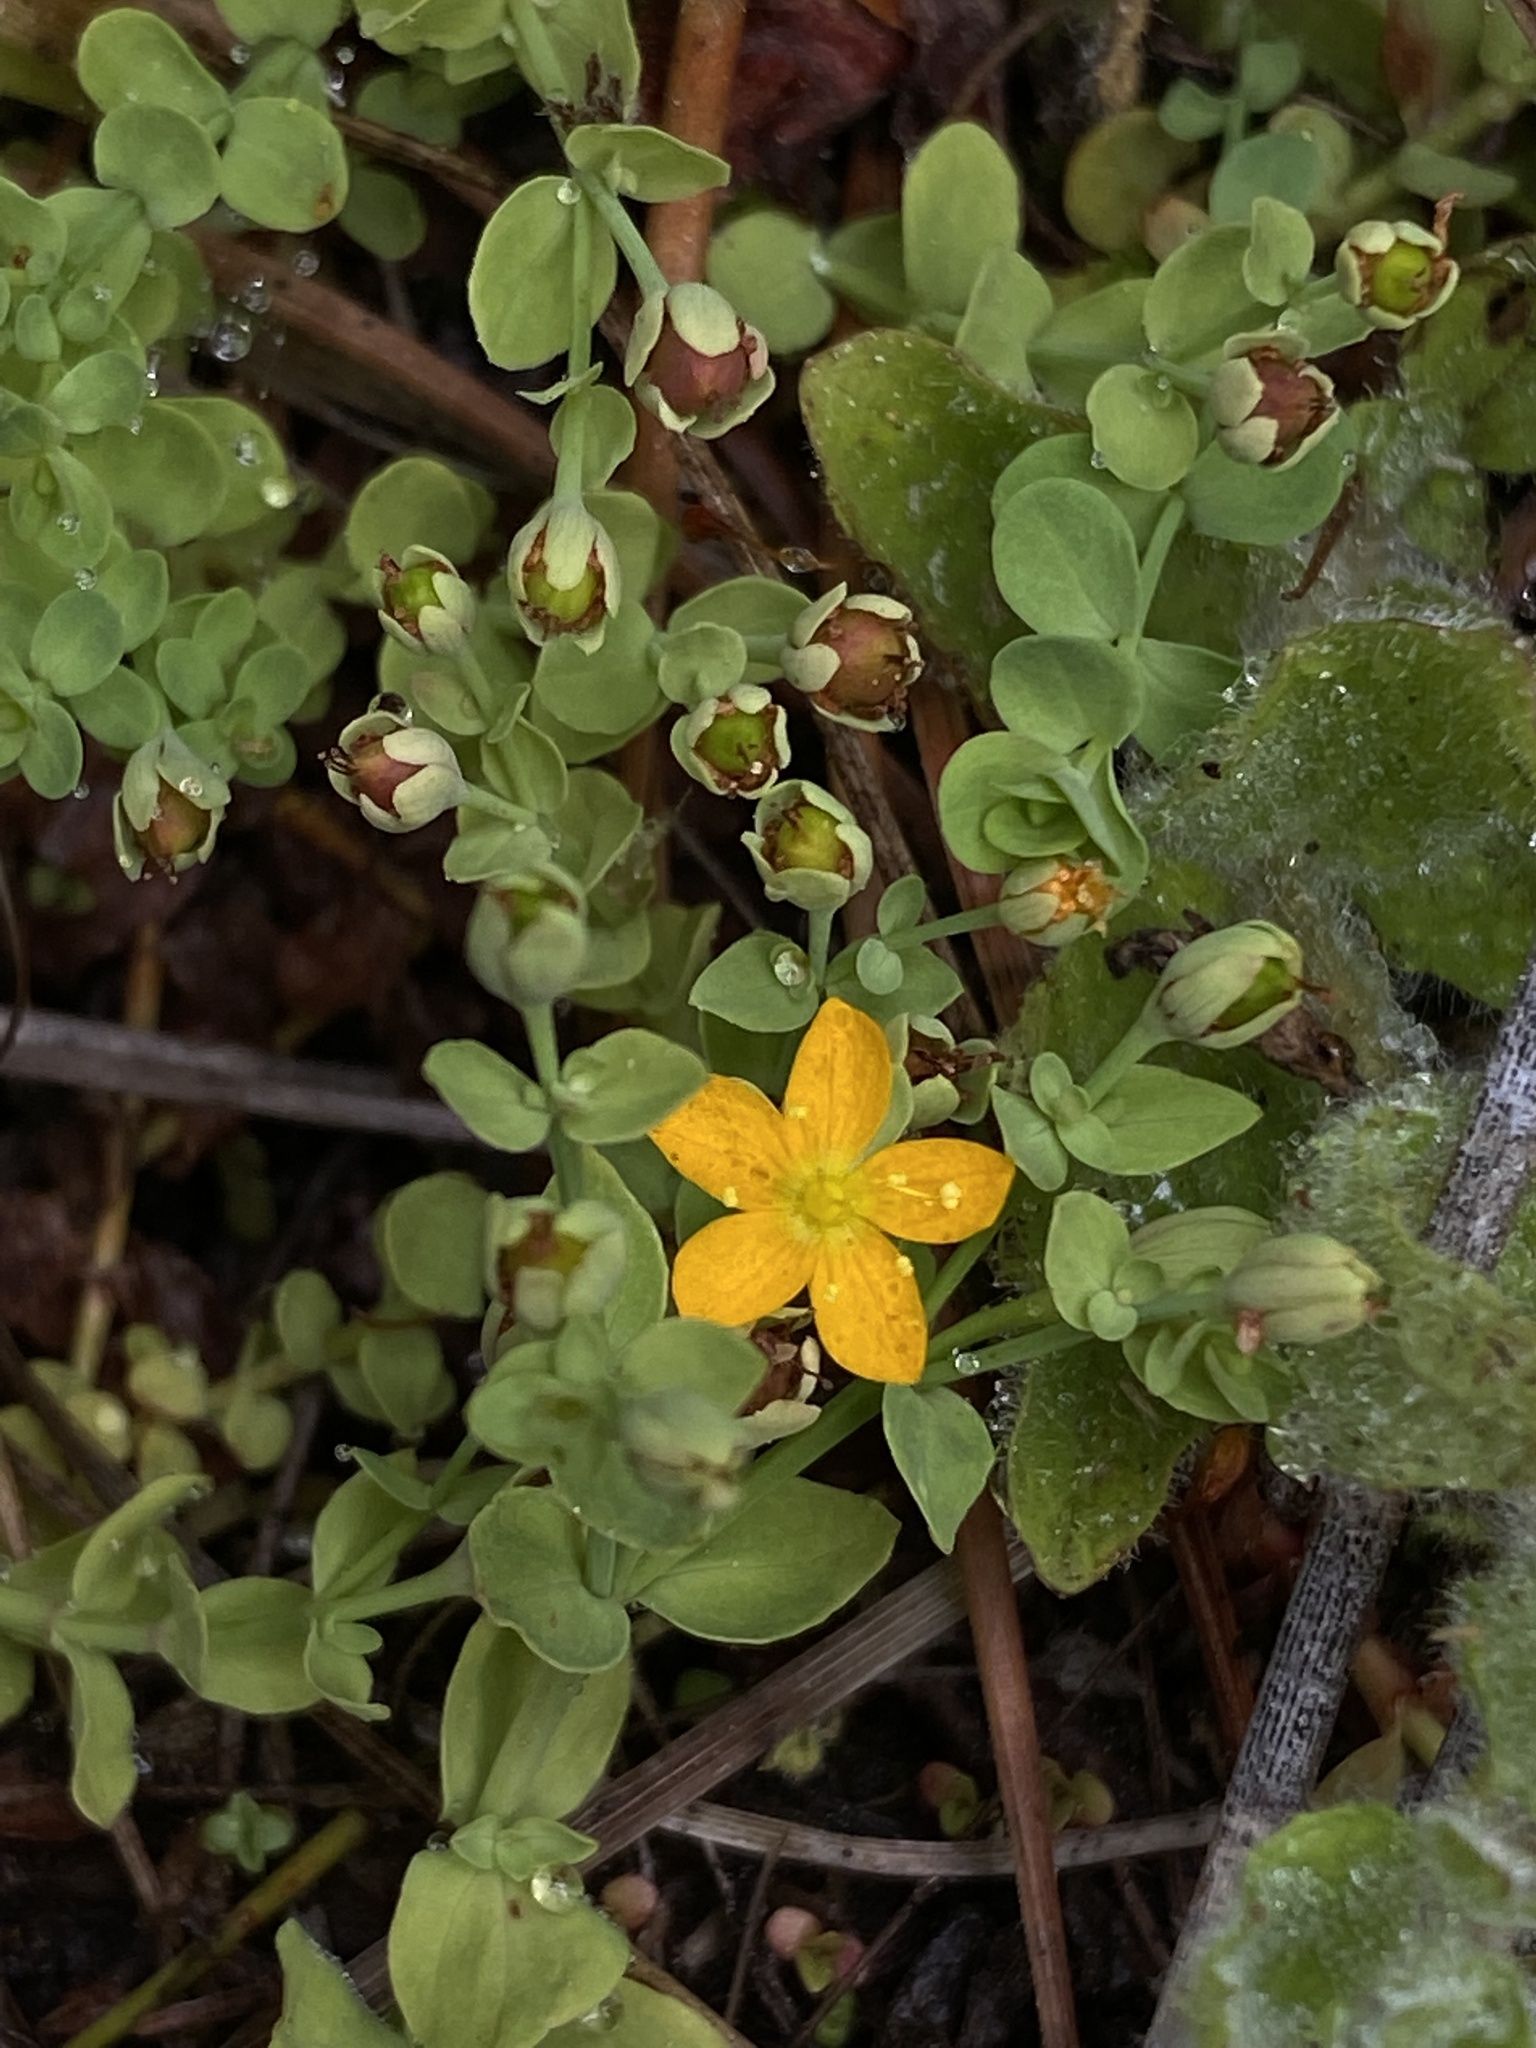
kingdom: Plantae
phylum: Tracheophyta
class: Magnoliopsida
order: Malpighiales
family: Hypericaceae
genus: Hypericum
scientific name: Hypericum anagalloides
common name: Bog st. john's-wort
